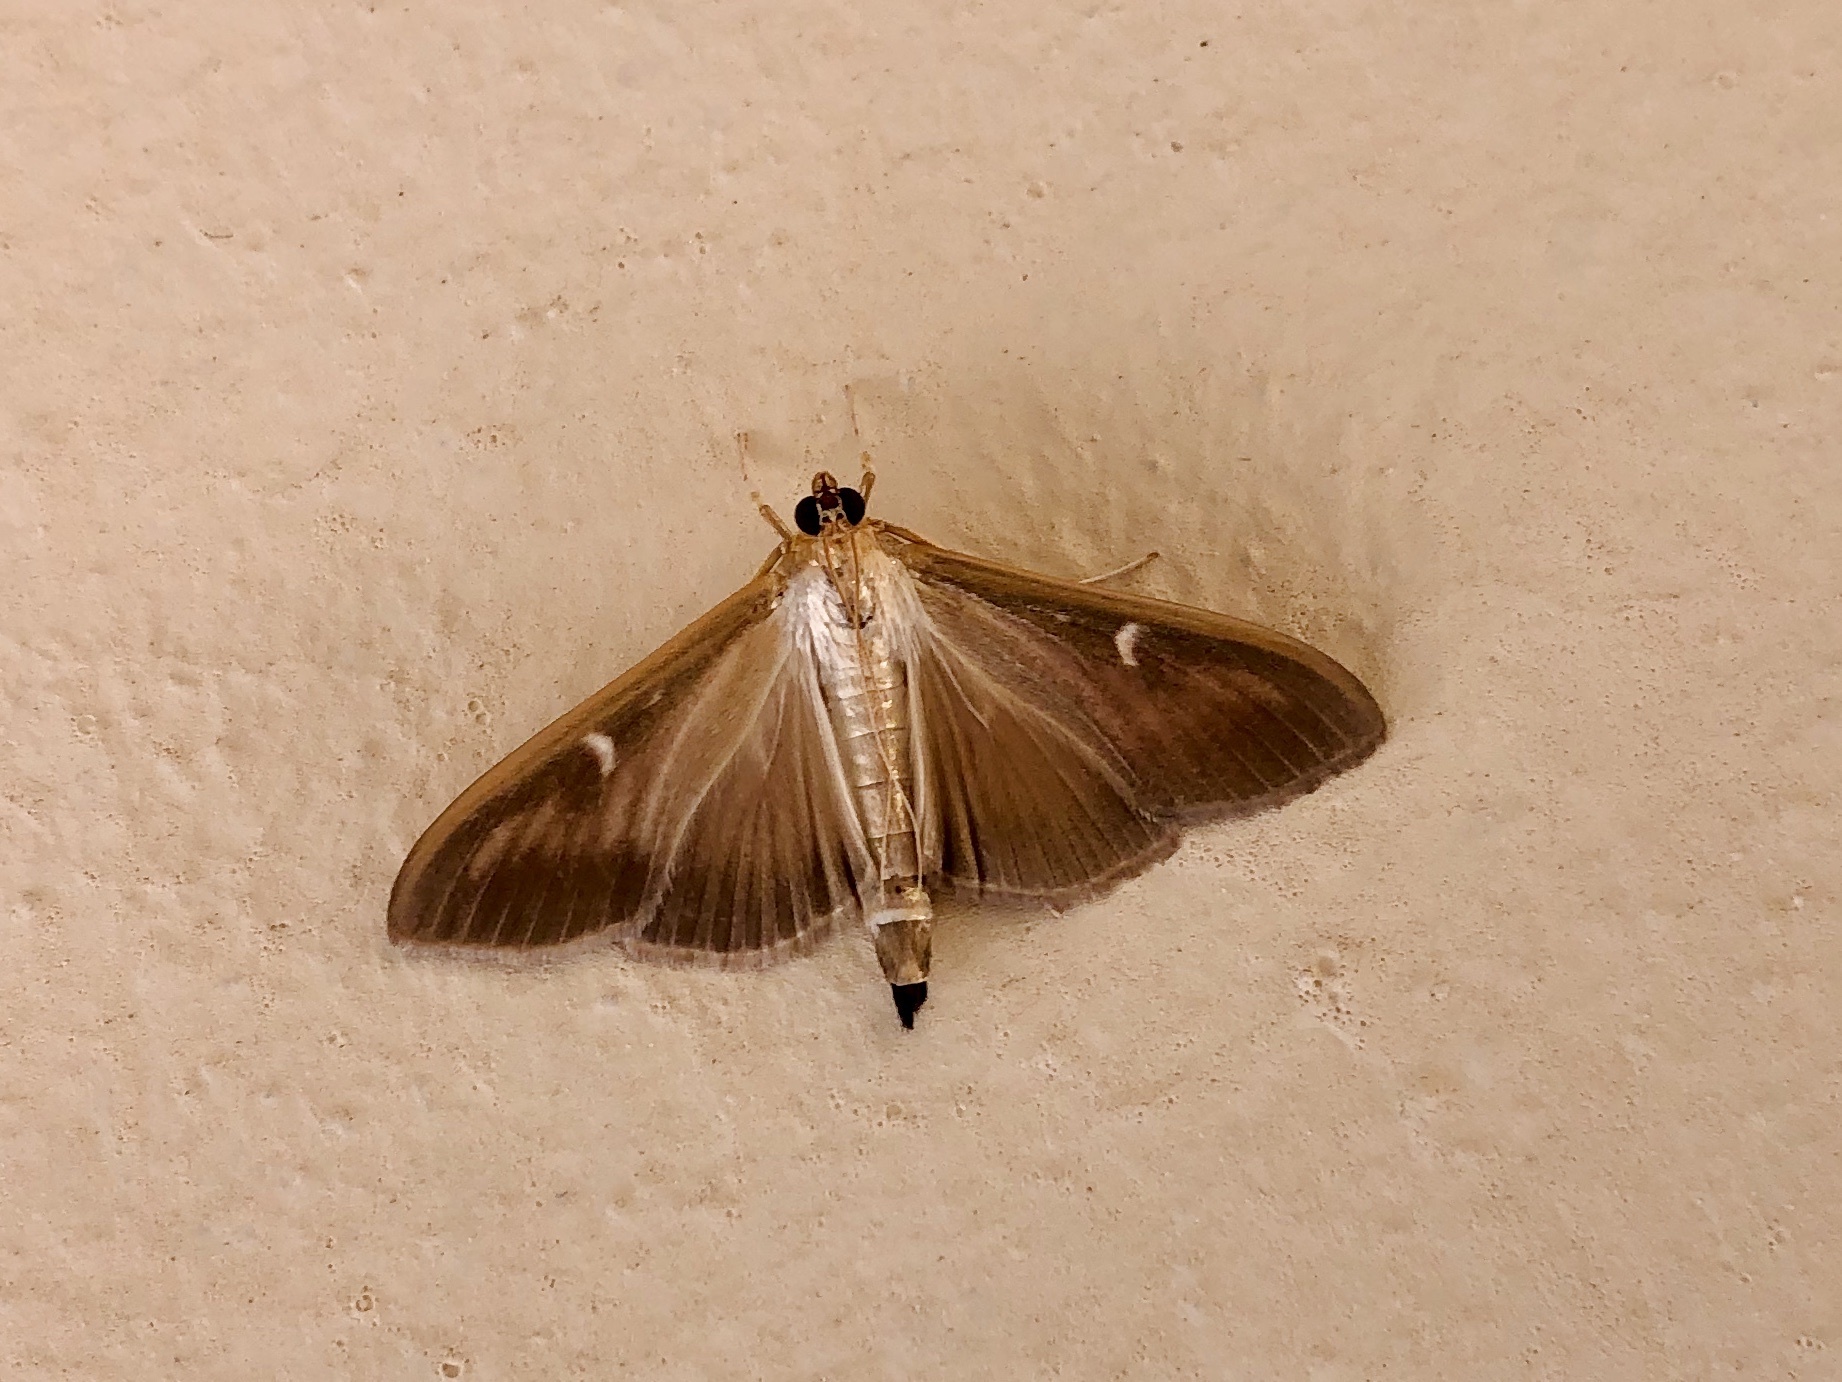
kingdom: Animalia
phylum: Arthropoda
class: Insecta
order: Lepidoptera
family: Crambidae
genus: Cydalima
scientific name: Cydalima perspectalis
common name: Box tree moth
